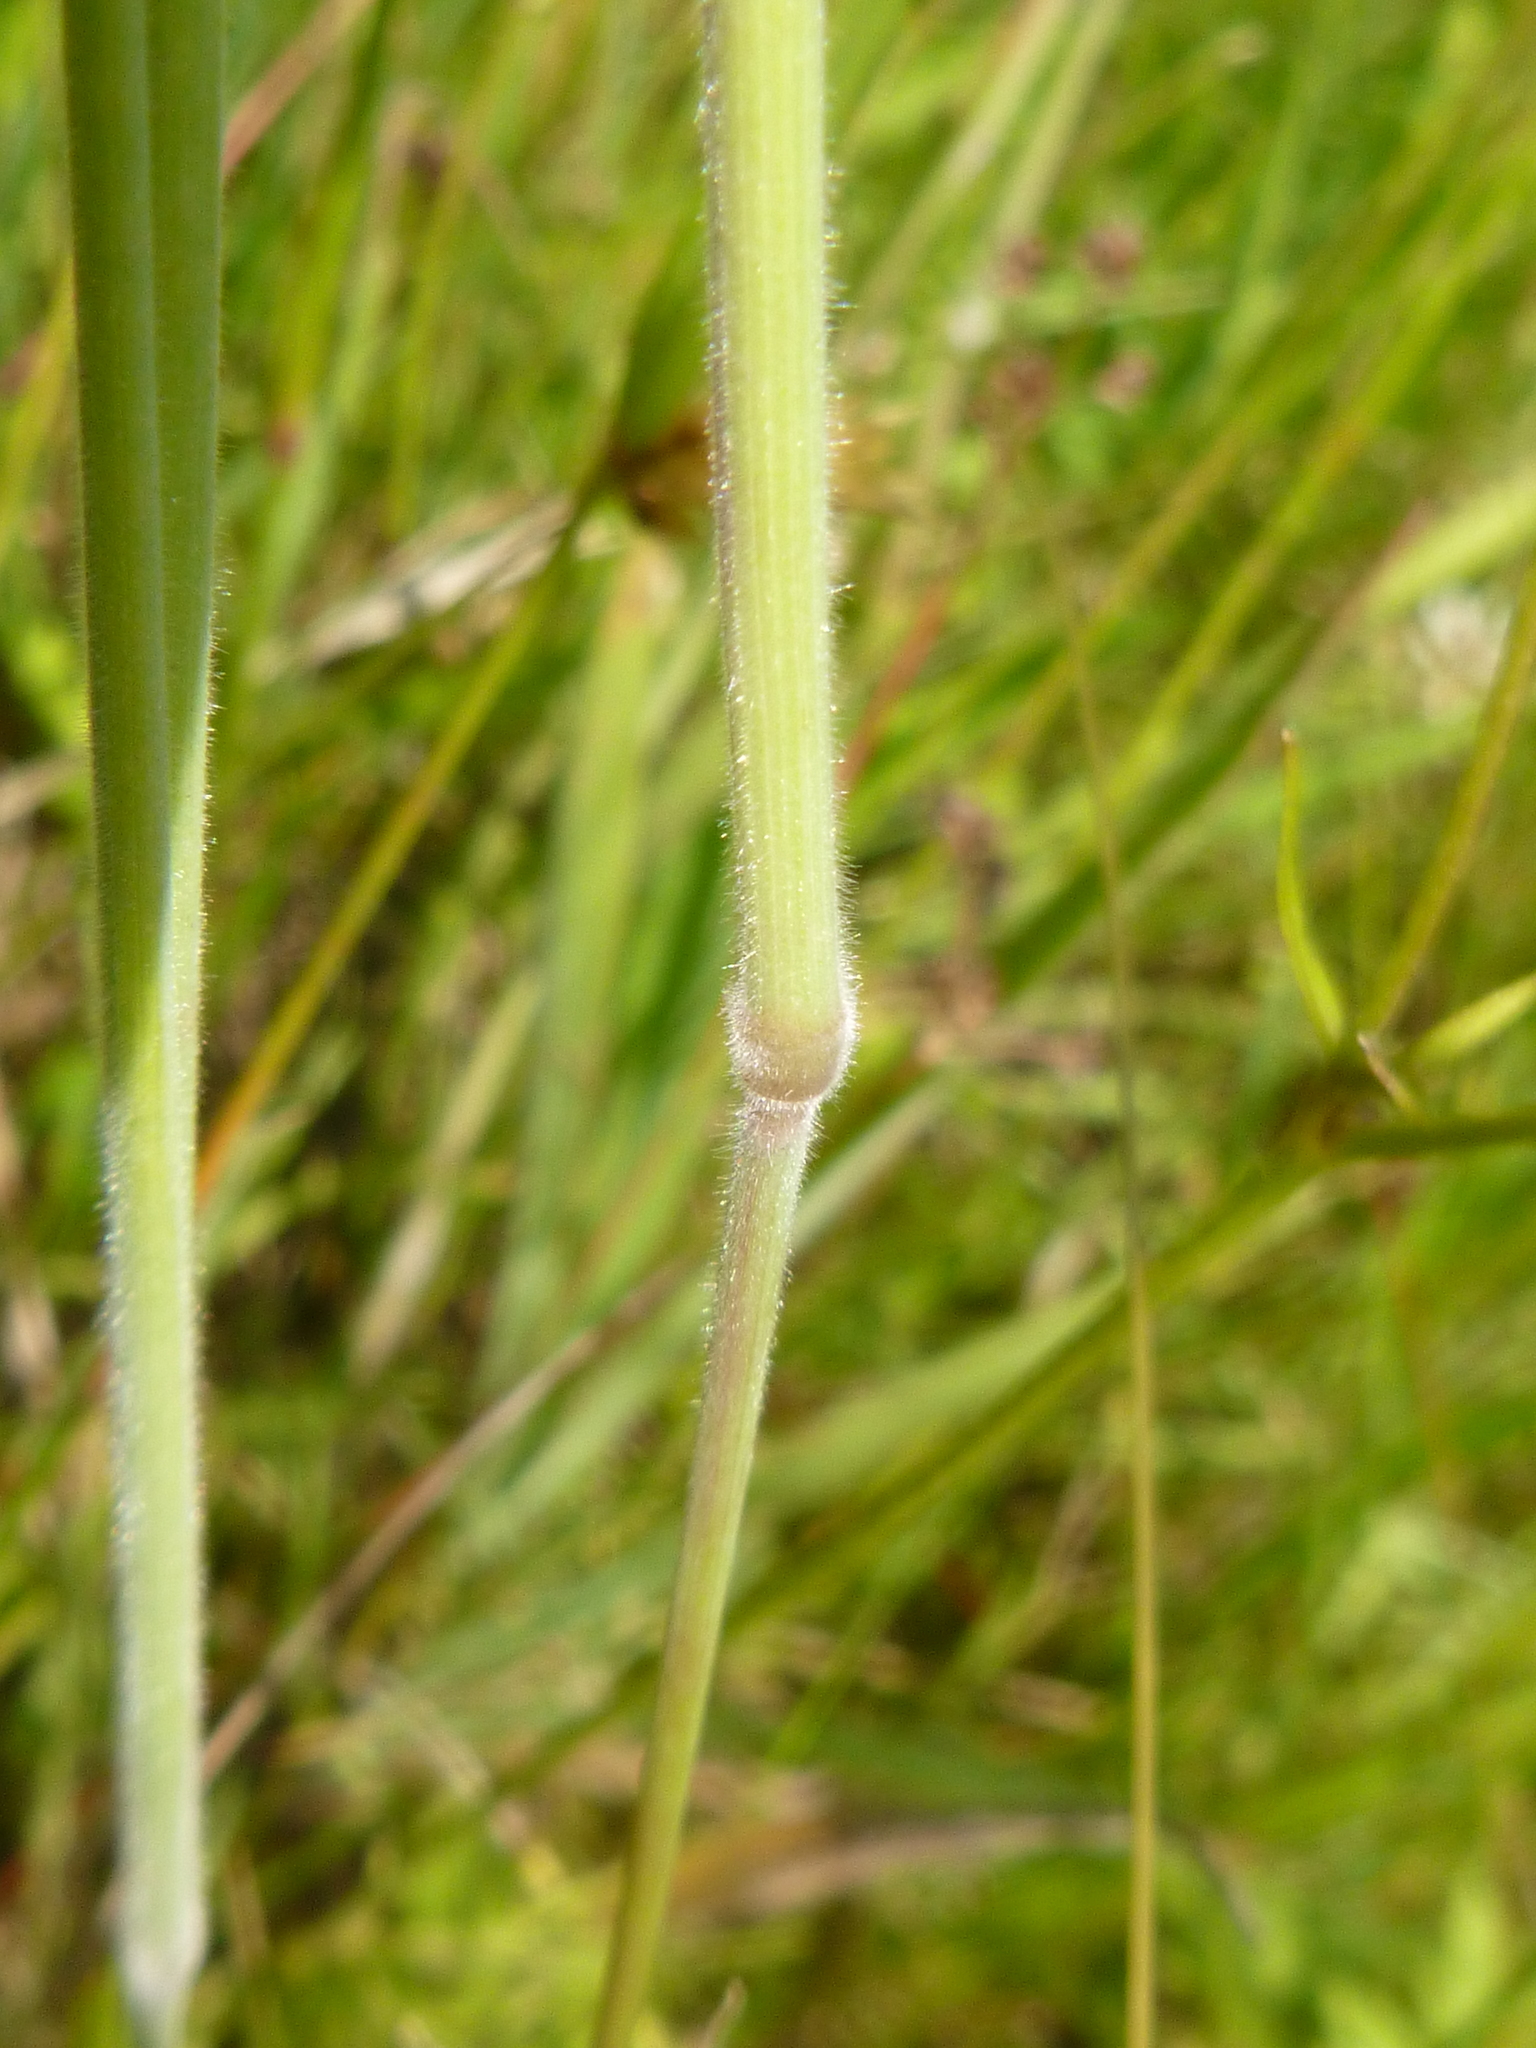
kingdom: Plantae
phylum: Tracheophyta
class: Liliopsida
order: Poales
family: Poaceae
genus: Holcus
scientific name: Holcus lanatus
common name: Yorkshire-fog
